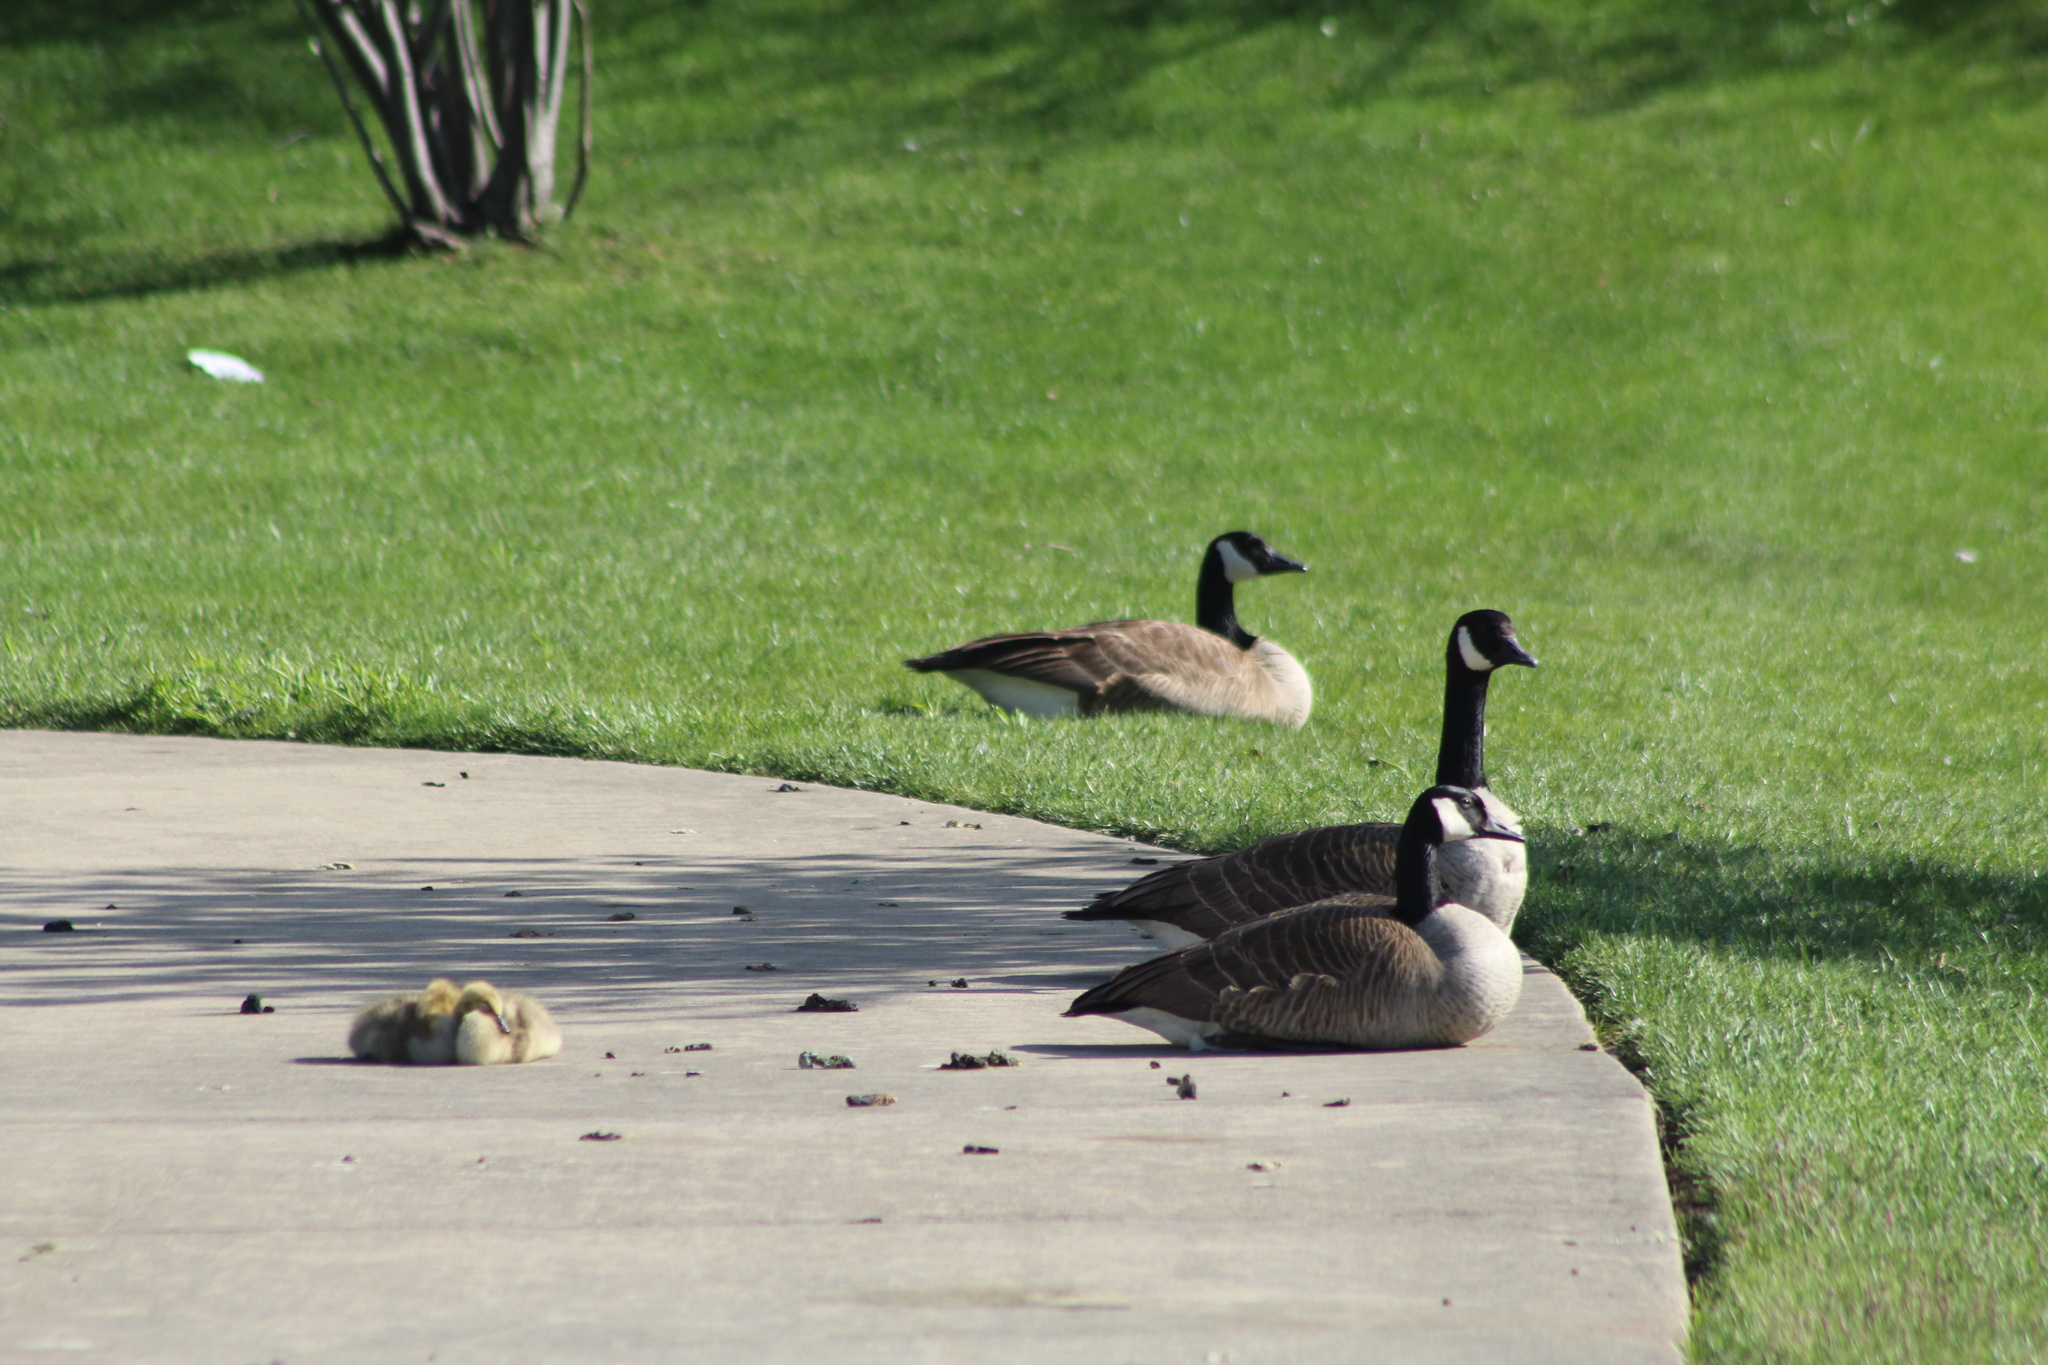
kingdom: Animalia
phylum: Chordata
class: Aves
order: Anseriformes
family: Anatidae
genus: Branta
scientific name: Branta canadensis
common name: Canada goose
